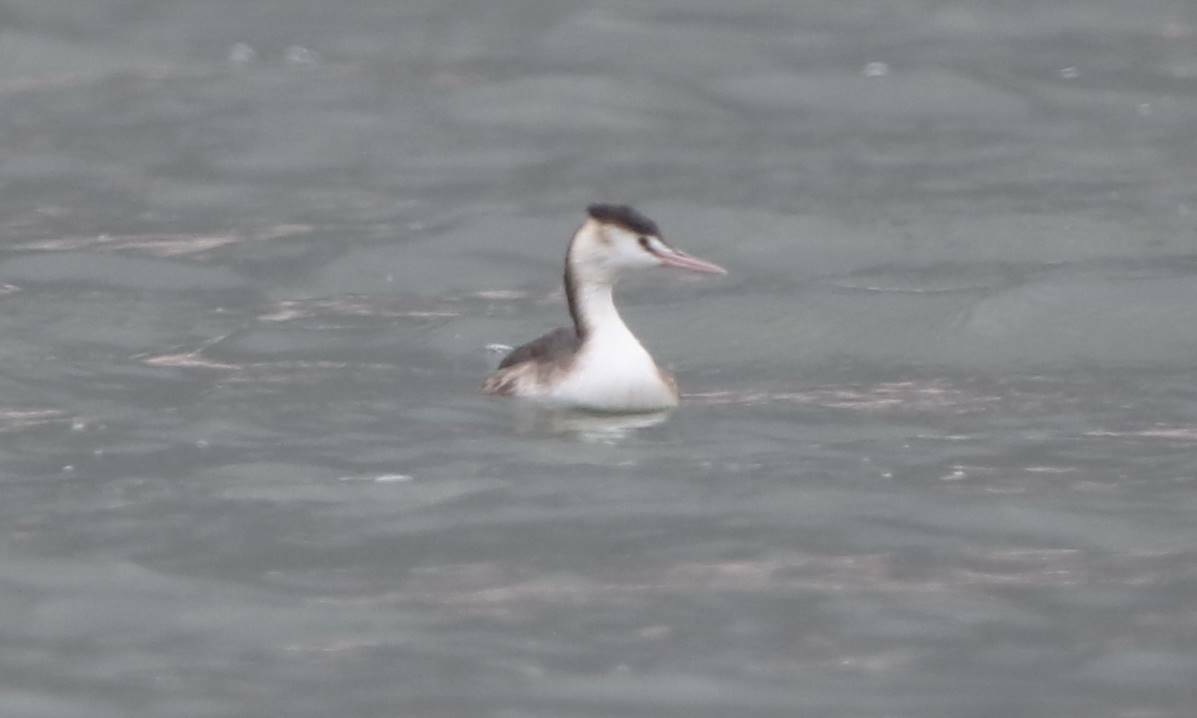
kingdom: Animalia
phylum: Chordata
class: Aves
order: Podicipediformes
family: Podicipedidae
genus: Podiceps
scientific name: Podiceps cristatus
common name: Great crested grebe
